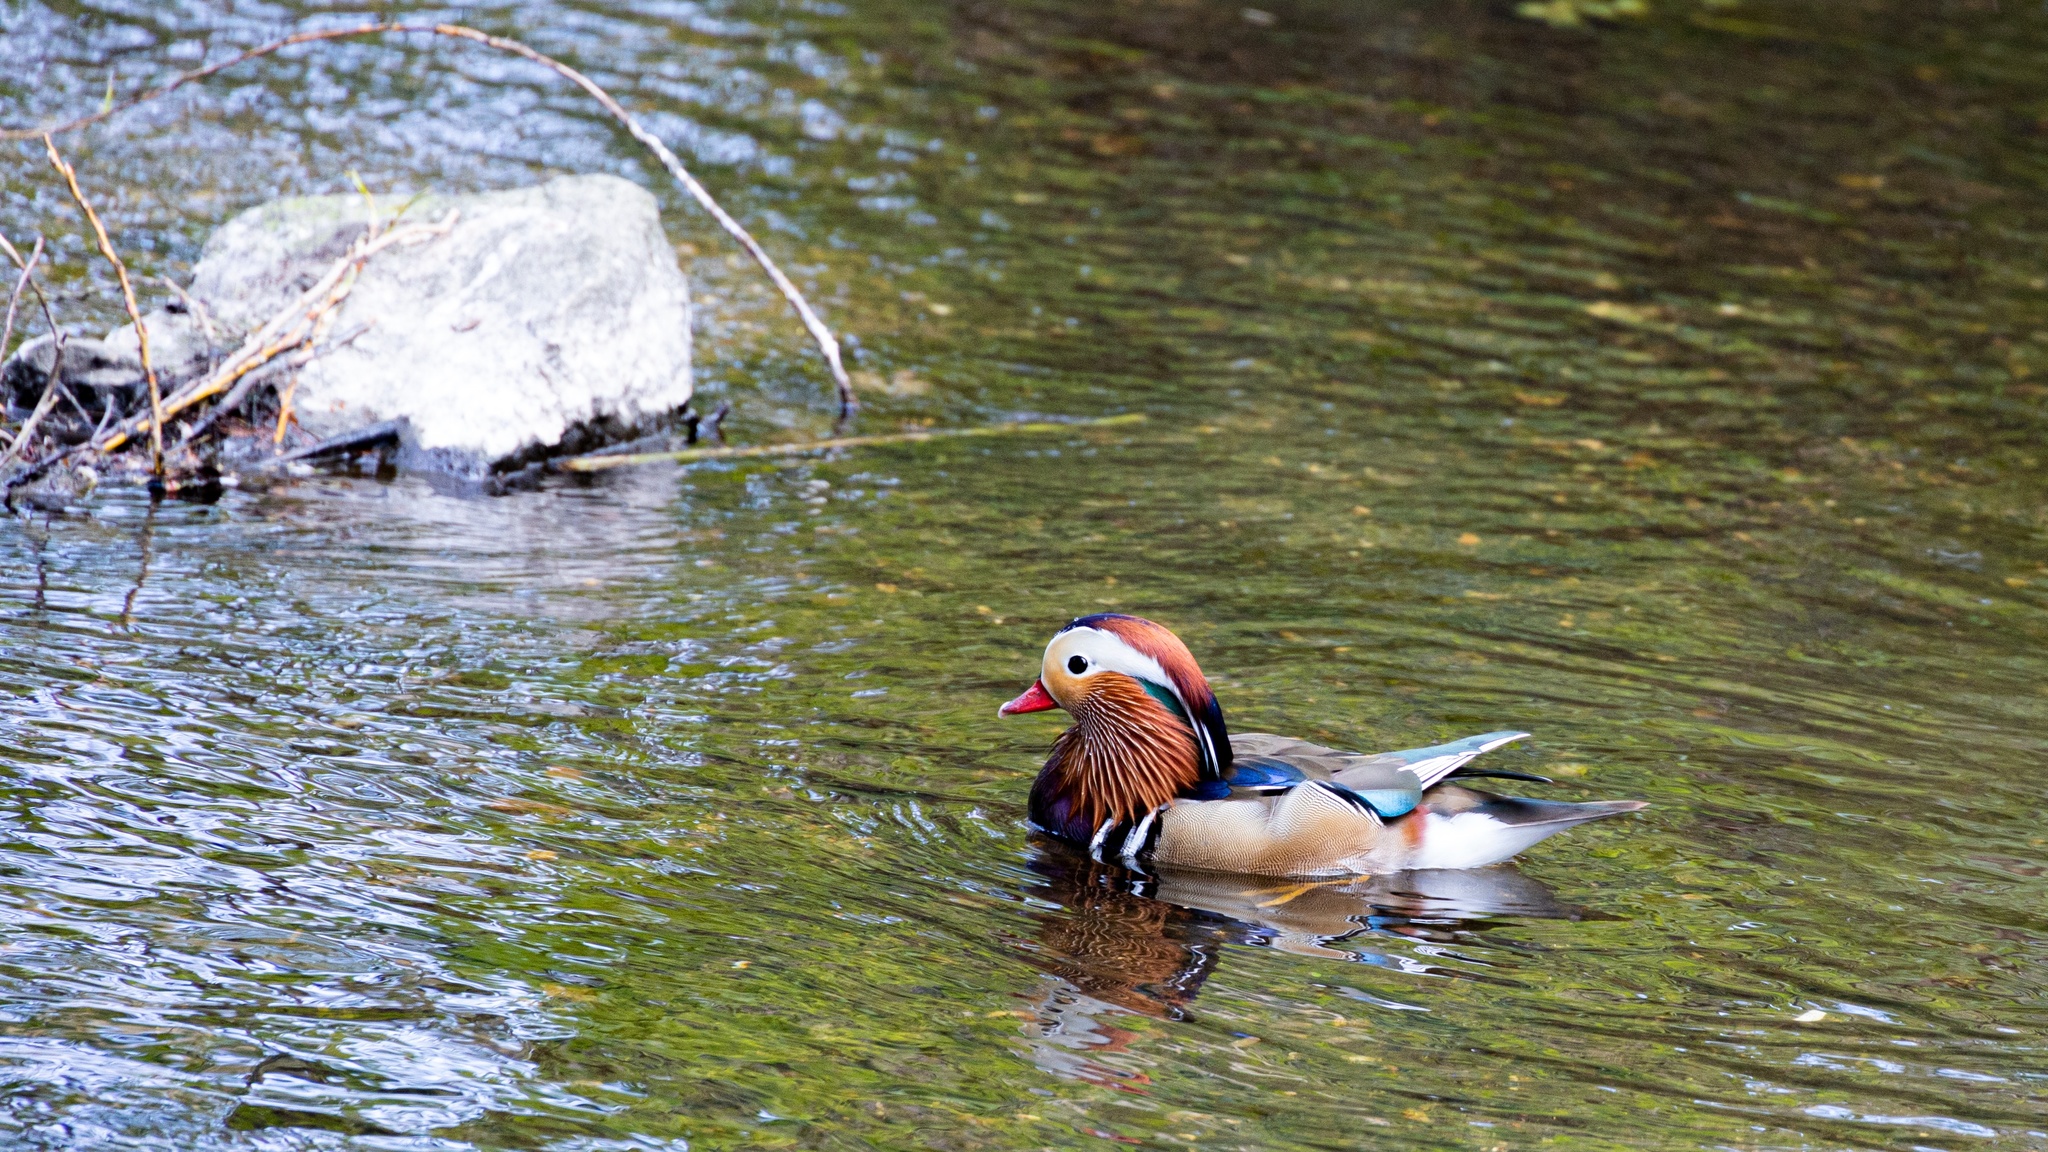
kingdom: Animalia
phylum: Chordata
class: Aves
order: Anseriformes
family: Anatidae
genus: Aix
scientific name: Aix galericulata
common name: Mandarin duck
